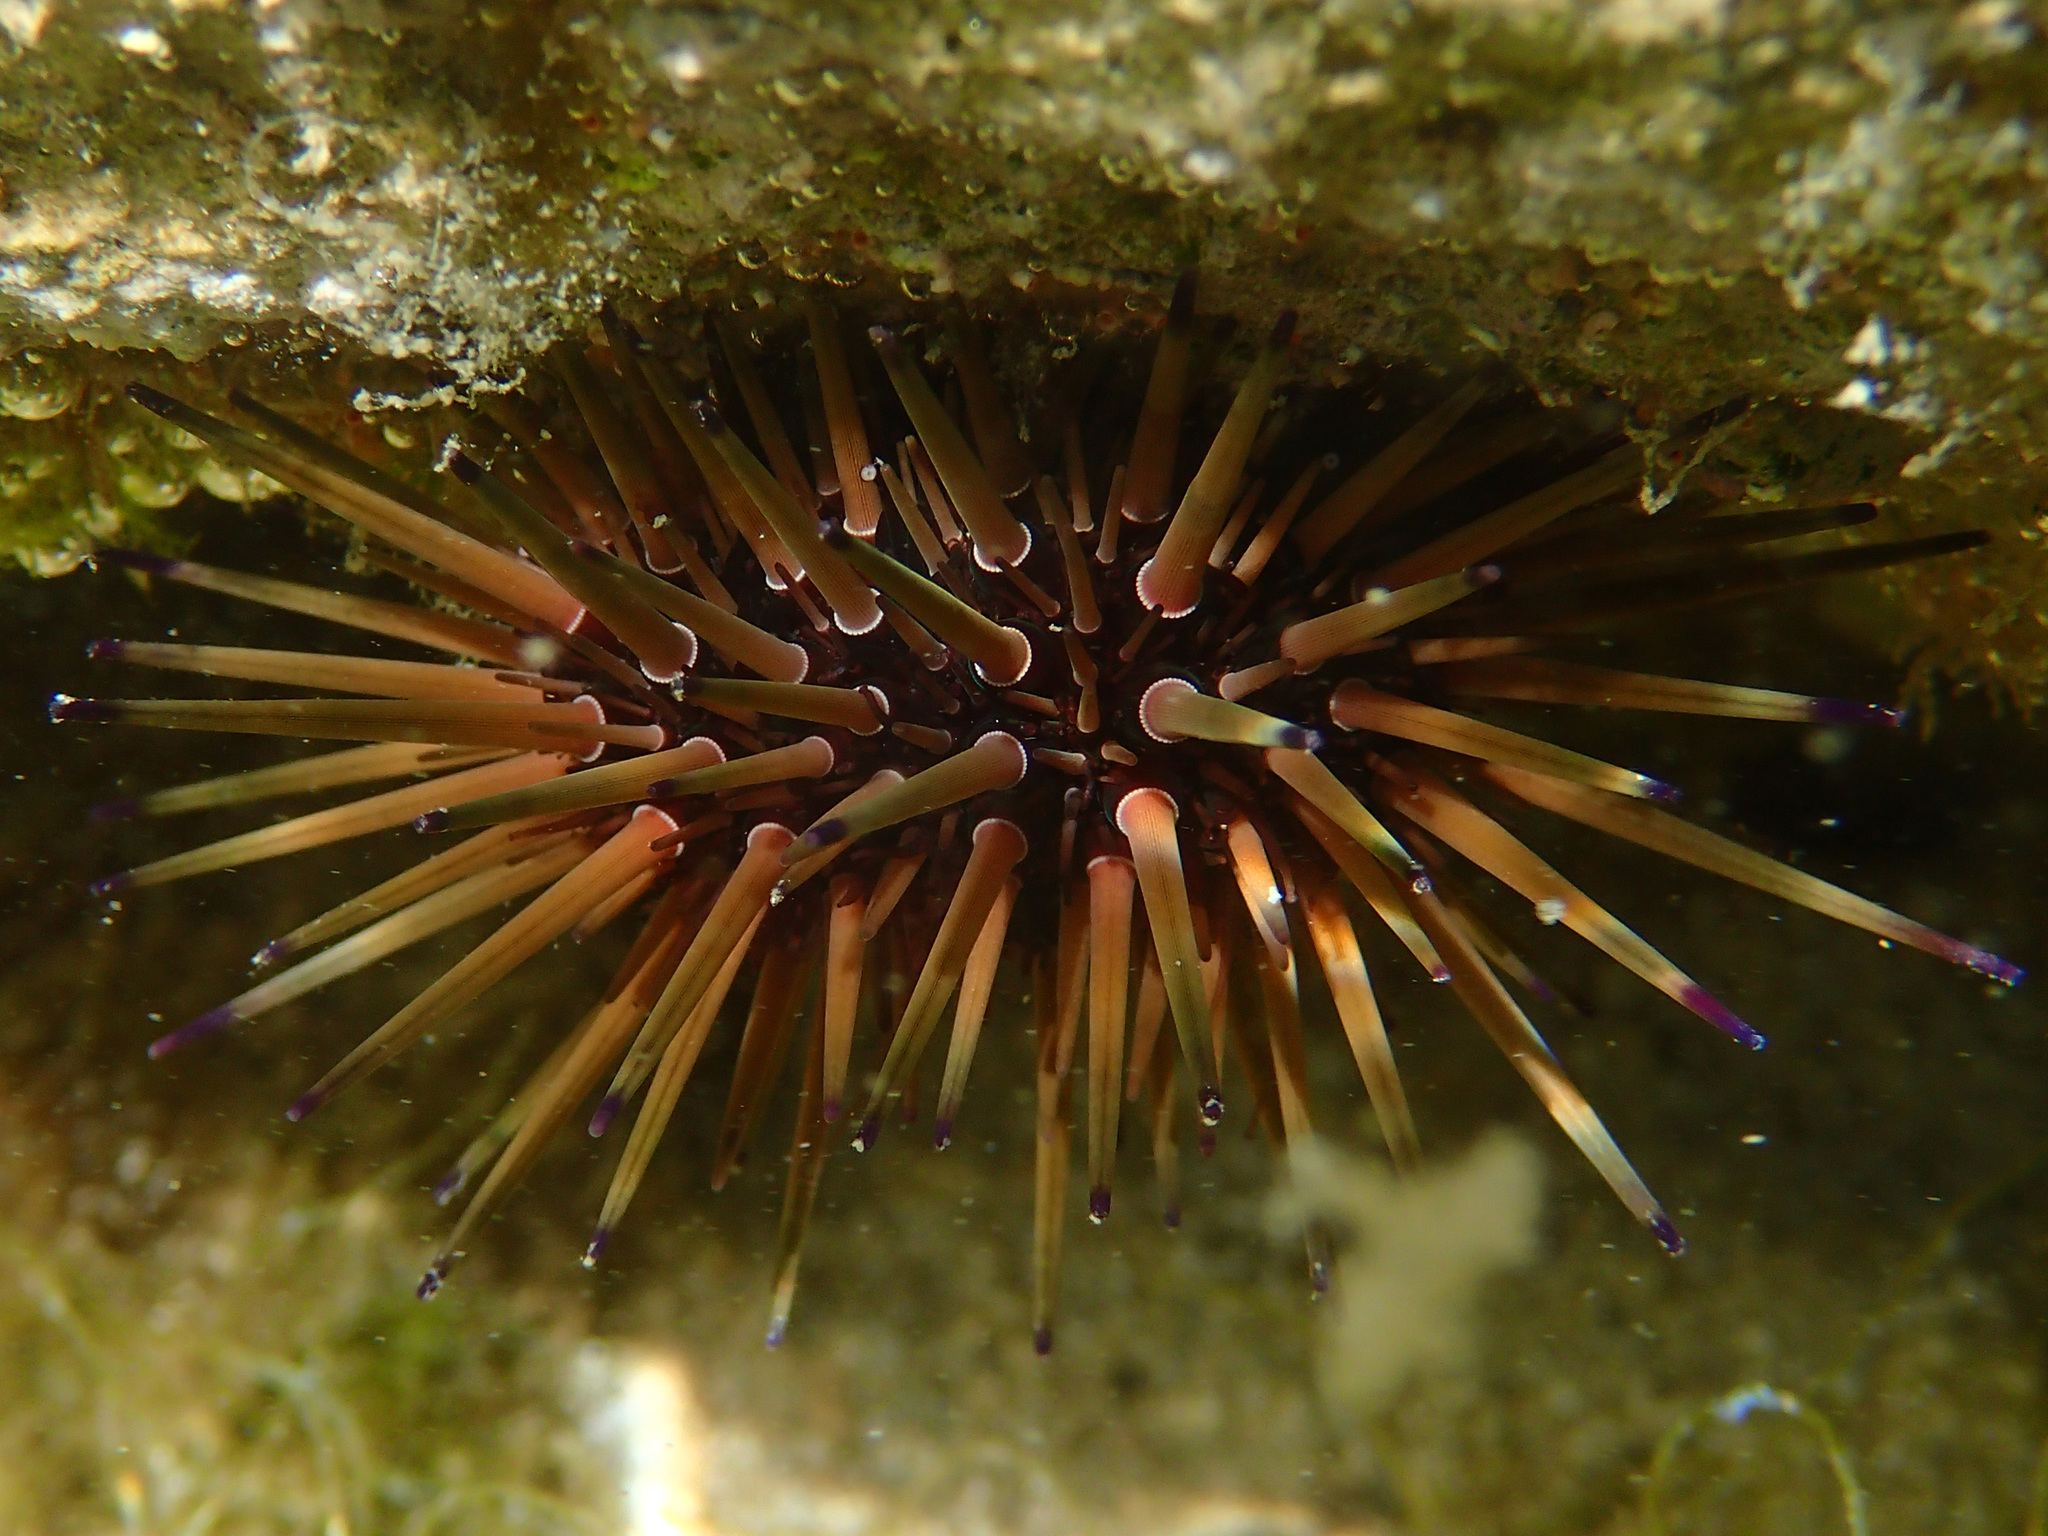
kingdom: Animalia
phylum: Echinodermata
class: Echinoidea
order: Camarodonta
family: Echinometridae
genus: Echinometra
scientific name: Echinometra viridis
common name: Reef urchin
